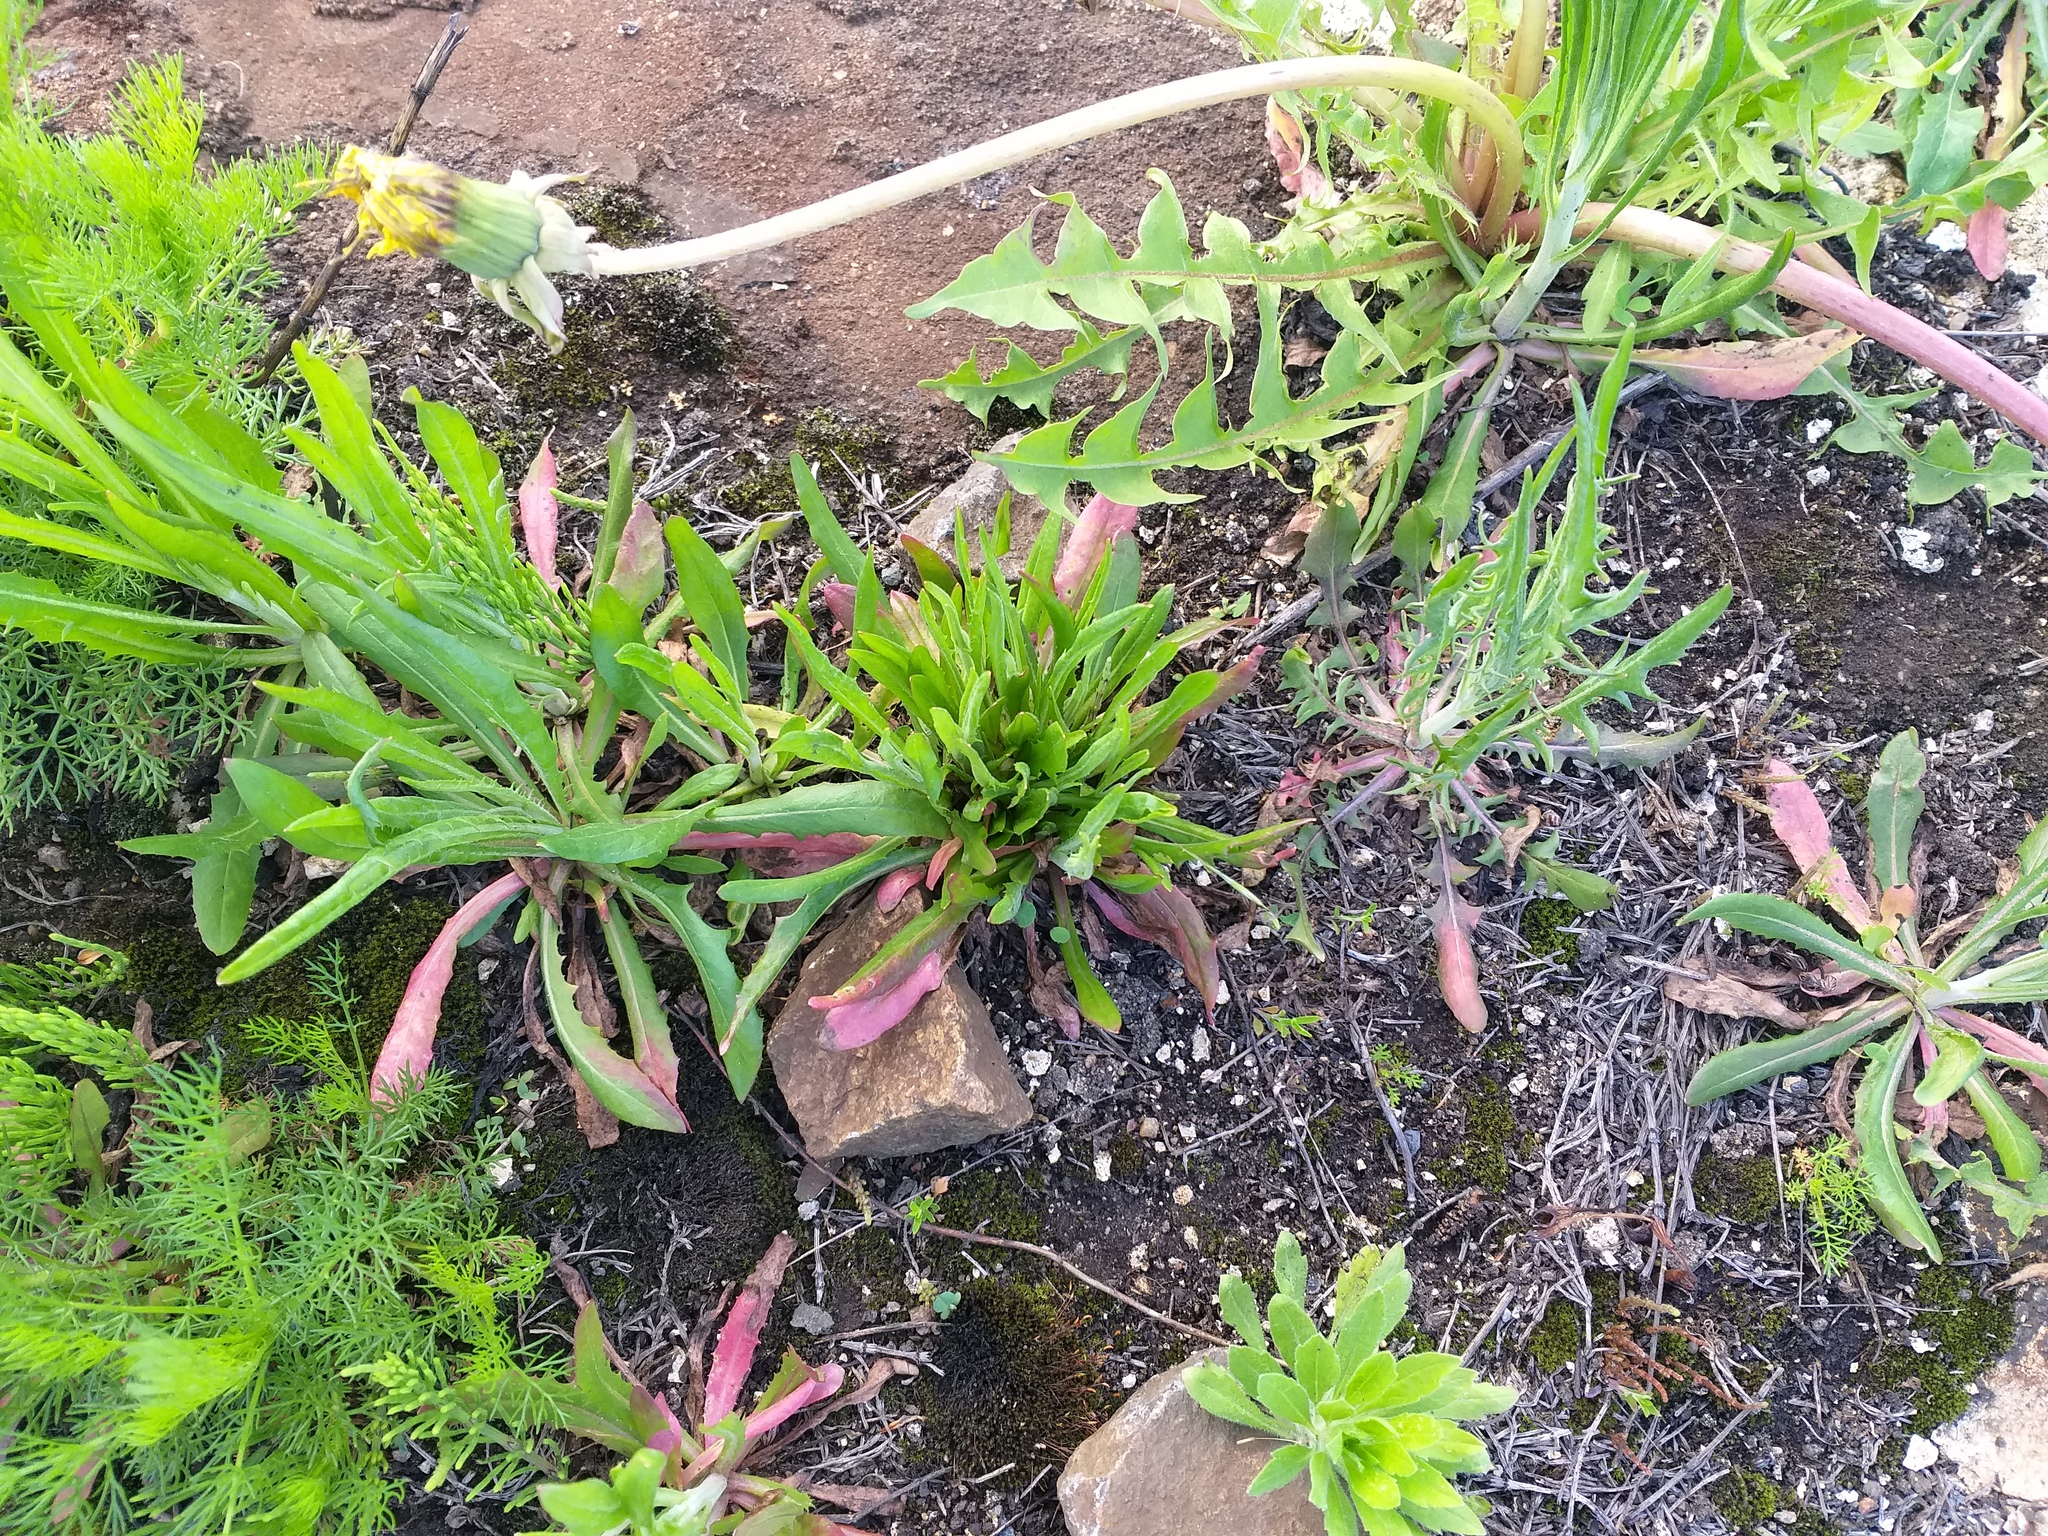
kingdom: Plantae
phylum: Tracheophyta
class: Magnoliopsida
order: Asterales
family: Asteraceae
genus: Crepis
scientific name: Crepis tectorum
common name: Narrow-leaved hawk's-beard
